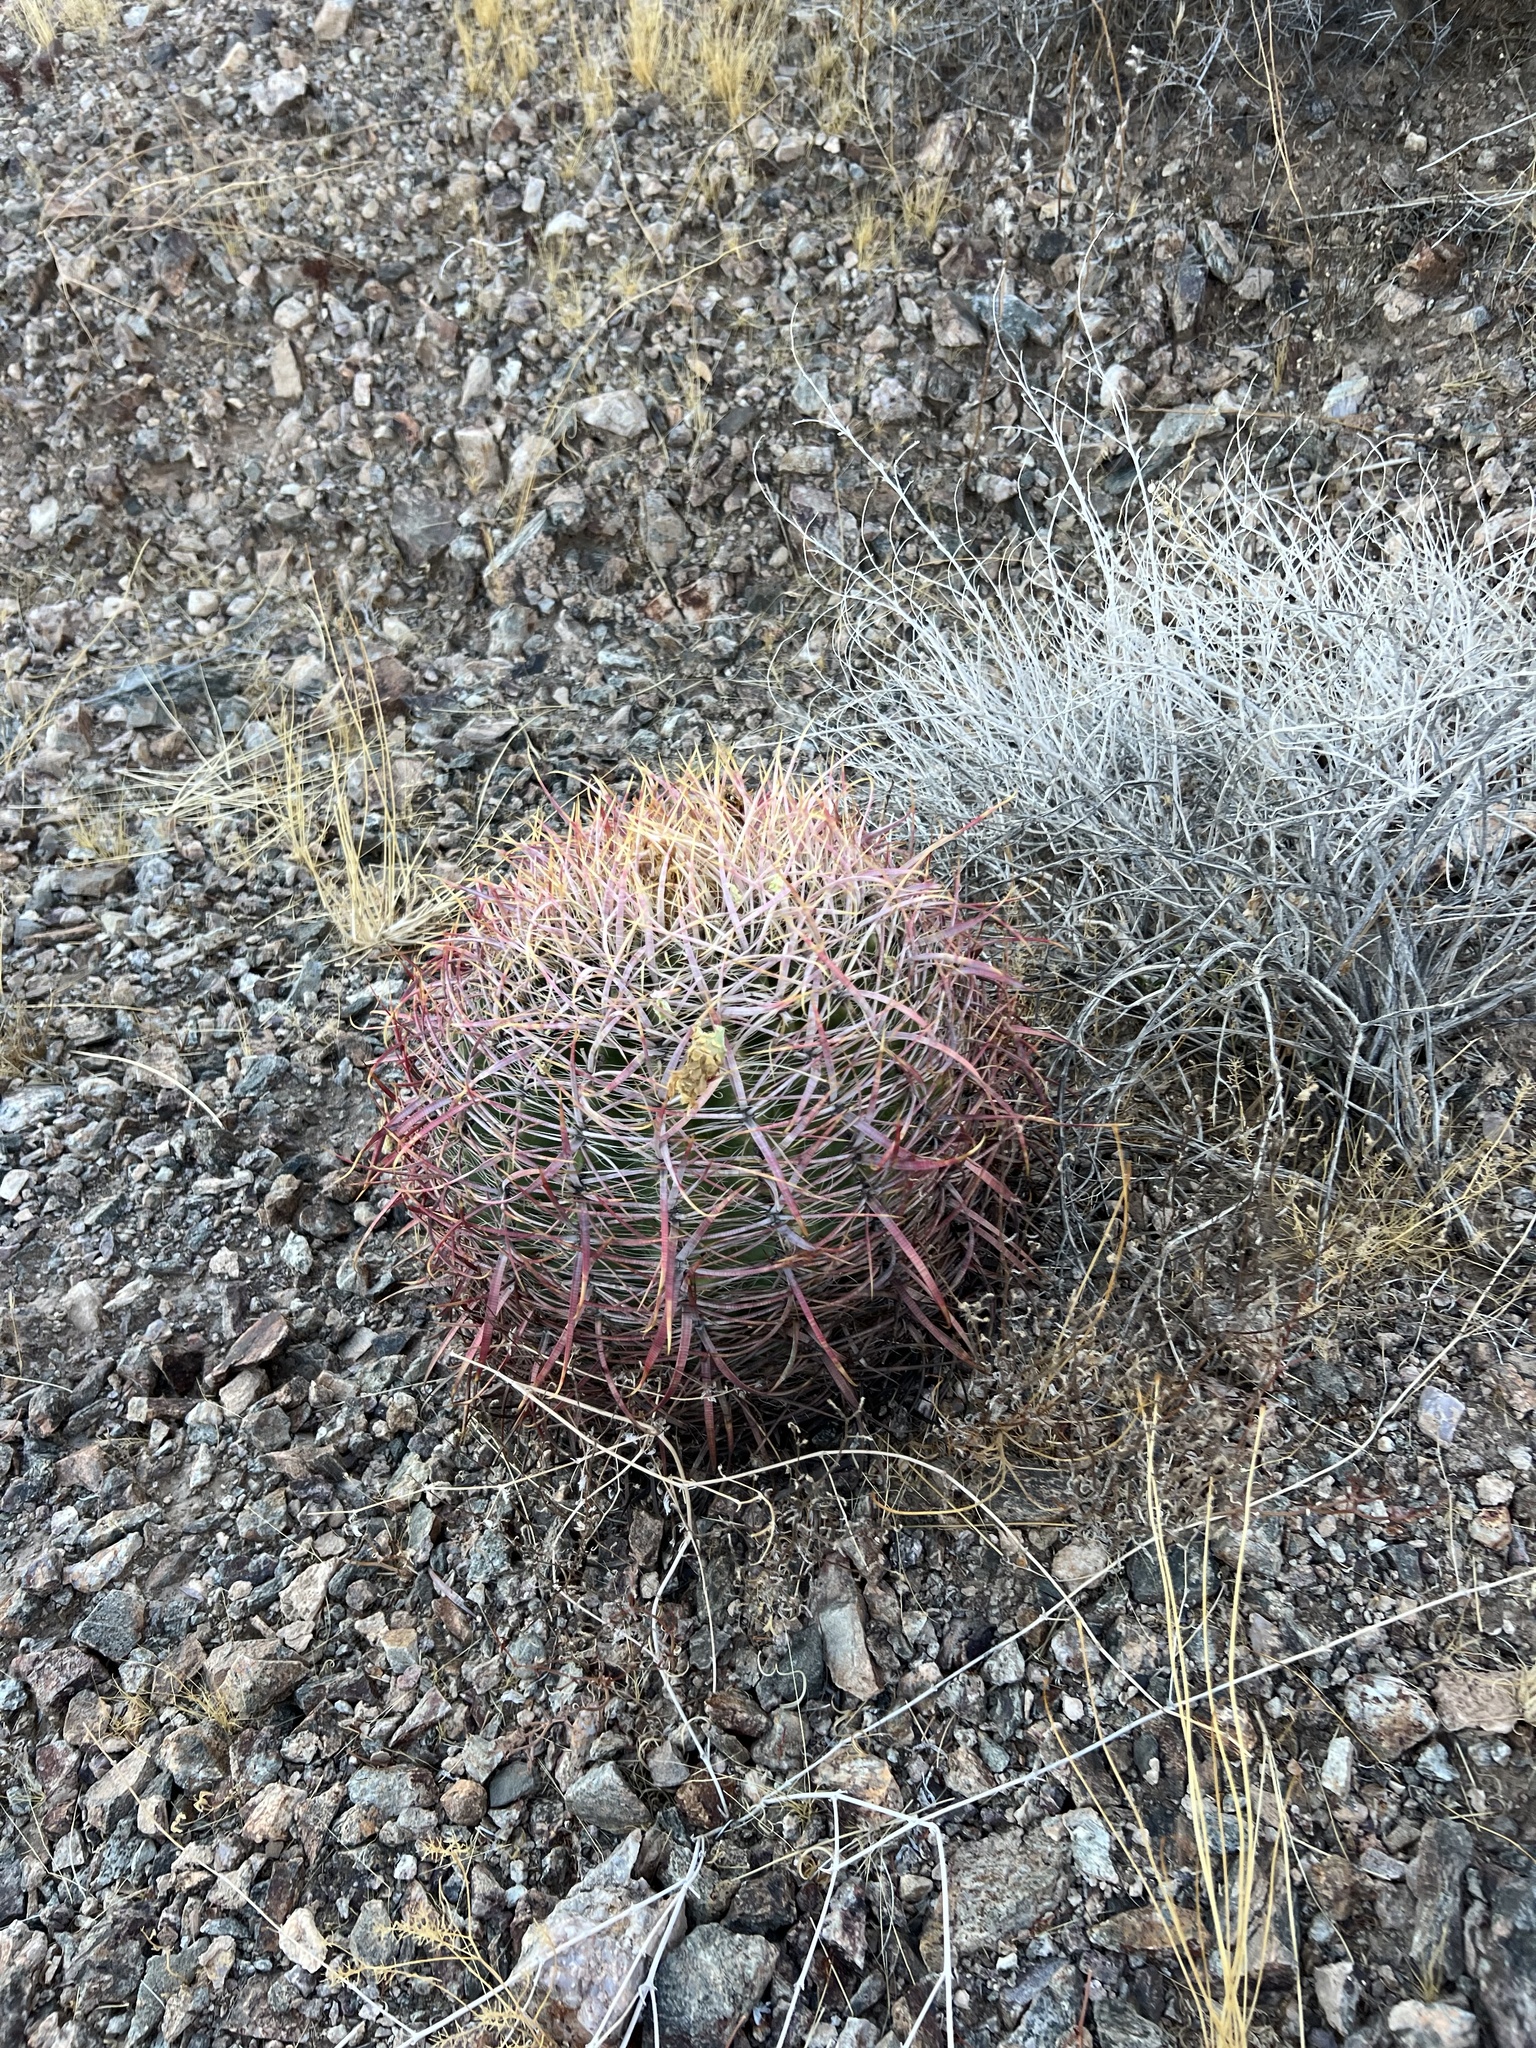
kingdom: Plantae
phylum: Tracheophyta
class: Magnoliopsida
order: Caryophyllales
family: Cactaceae
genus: Ferocactus
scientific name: Ferocactus cylindraceus
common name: California barrel cactus
